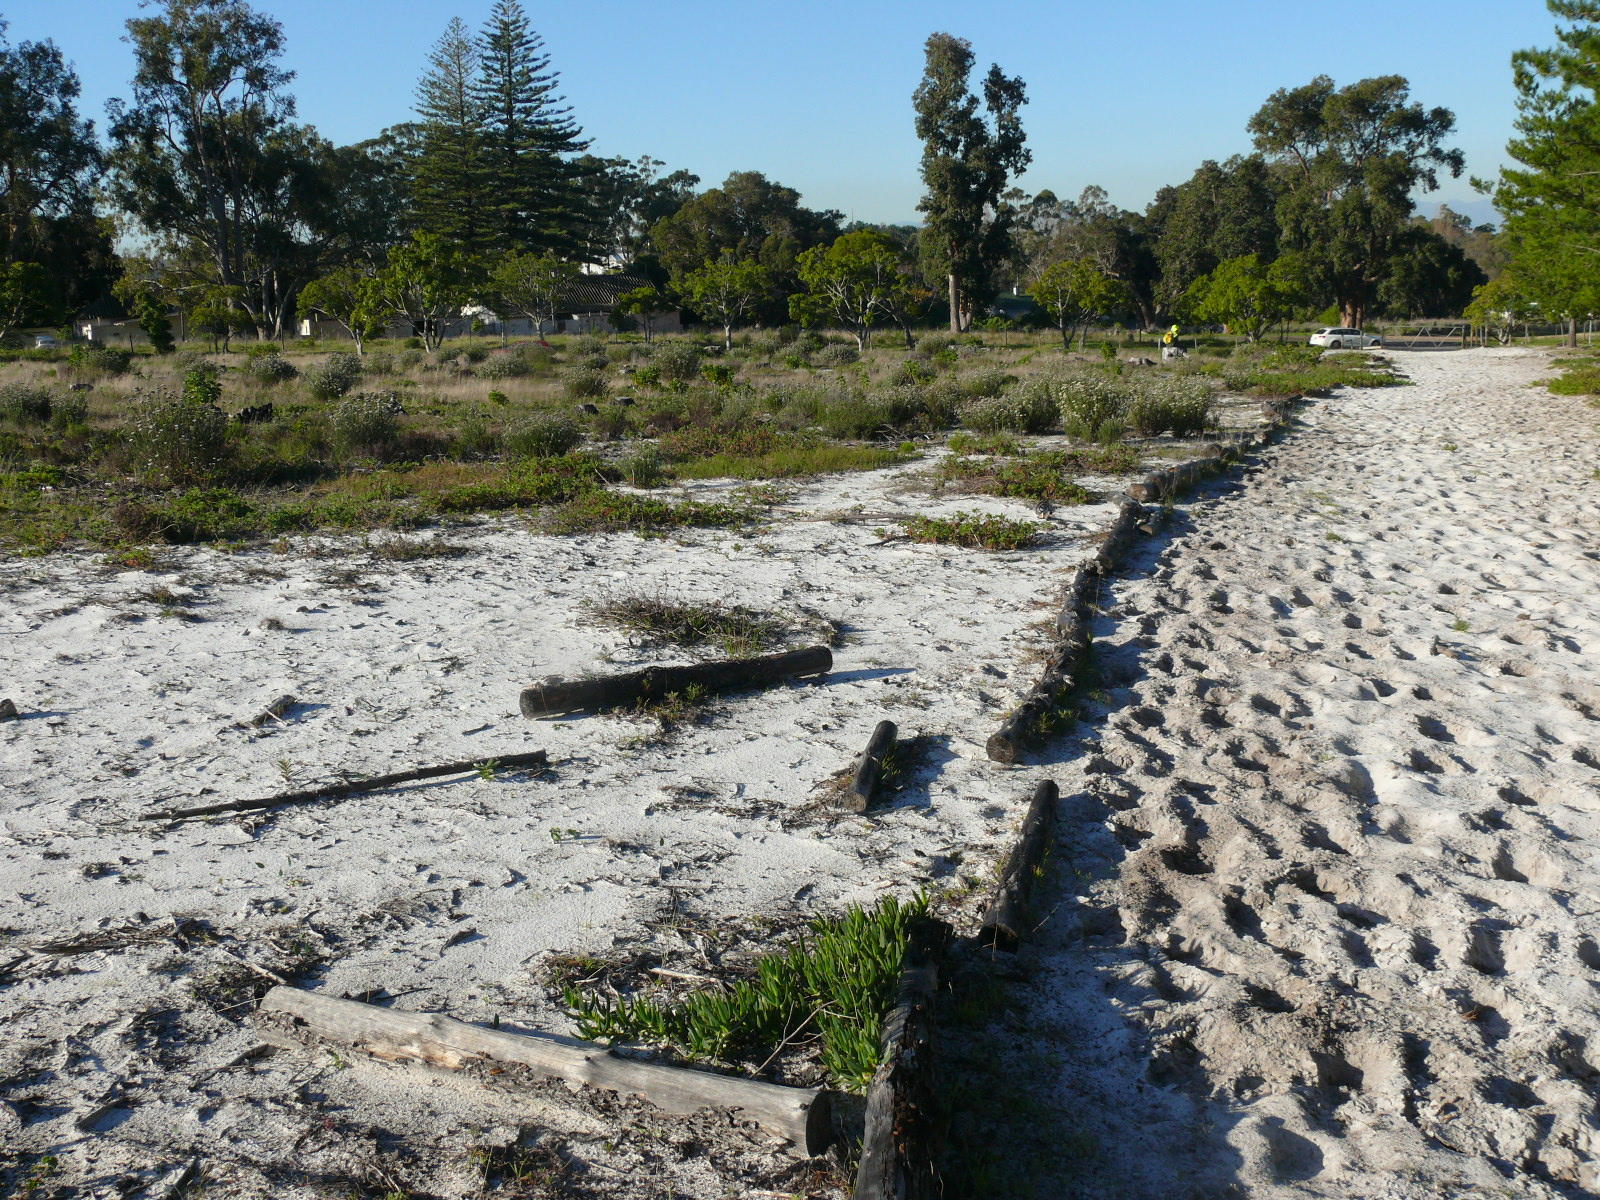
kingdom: Plantae
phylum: Tracheophyta
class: Magnoliopsida
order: Fabales
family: Fabaceae
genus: Aspalathus
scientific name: Aspalathus retroflexa
